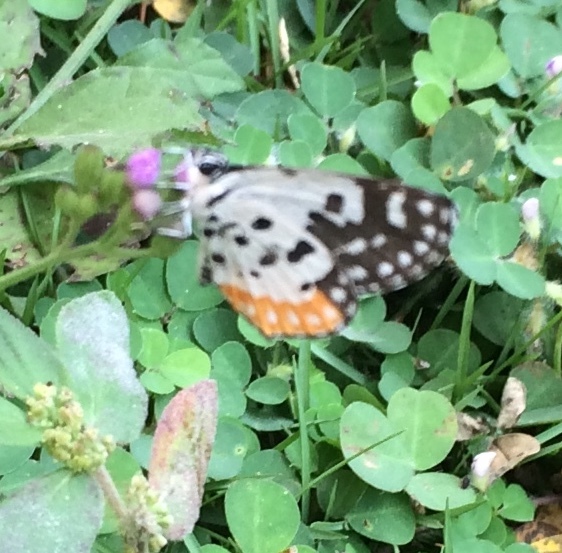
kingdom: Animalia
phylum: Arthropoda
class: Insecta
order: Lepidoptera
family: Lycaenidae
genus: Talicada
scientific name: Talicada nyseus
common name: Red pierrot
